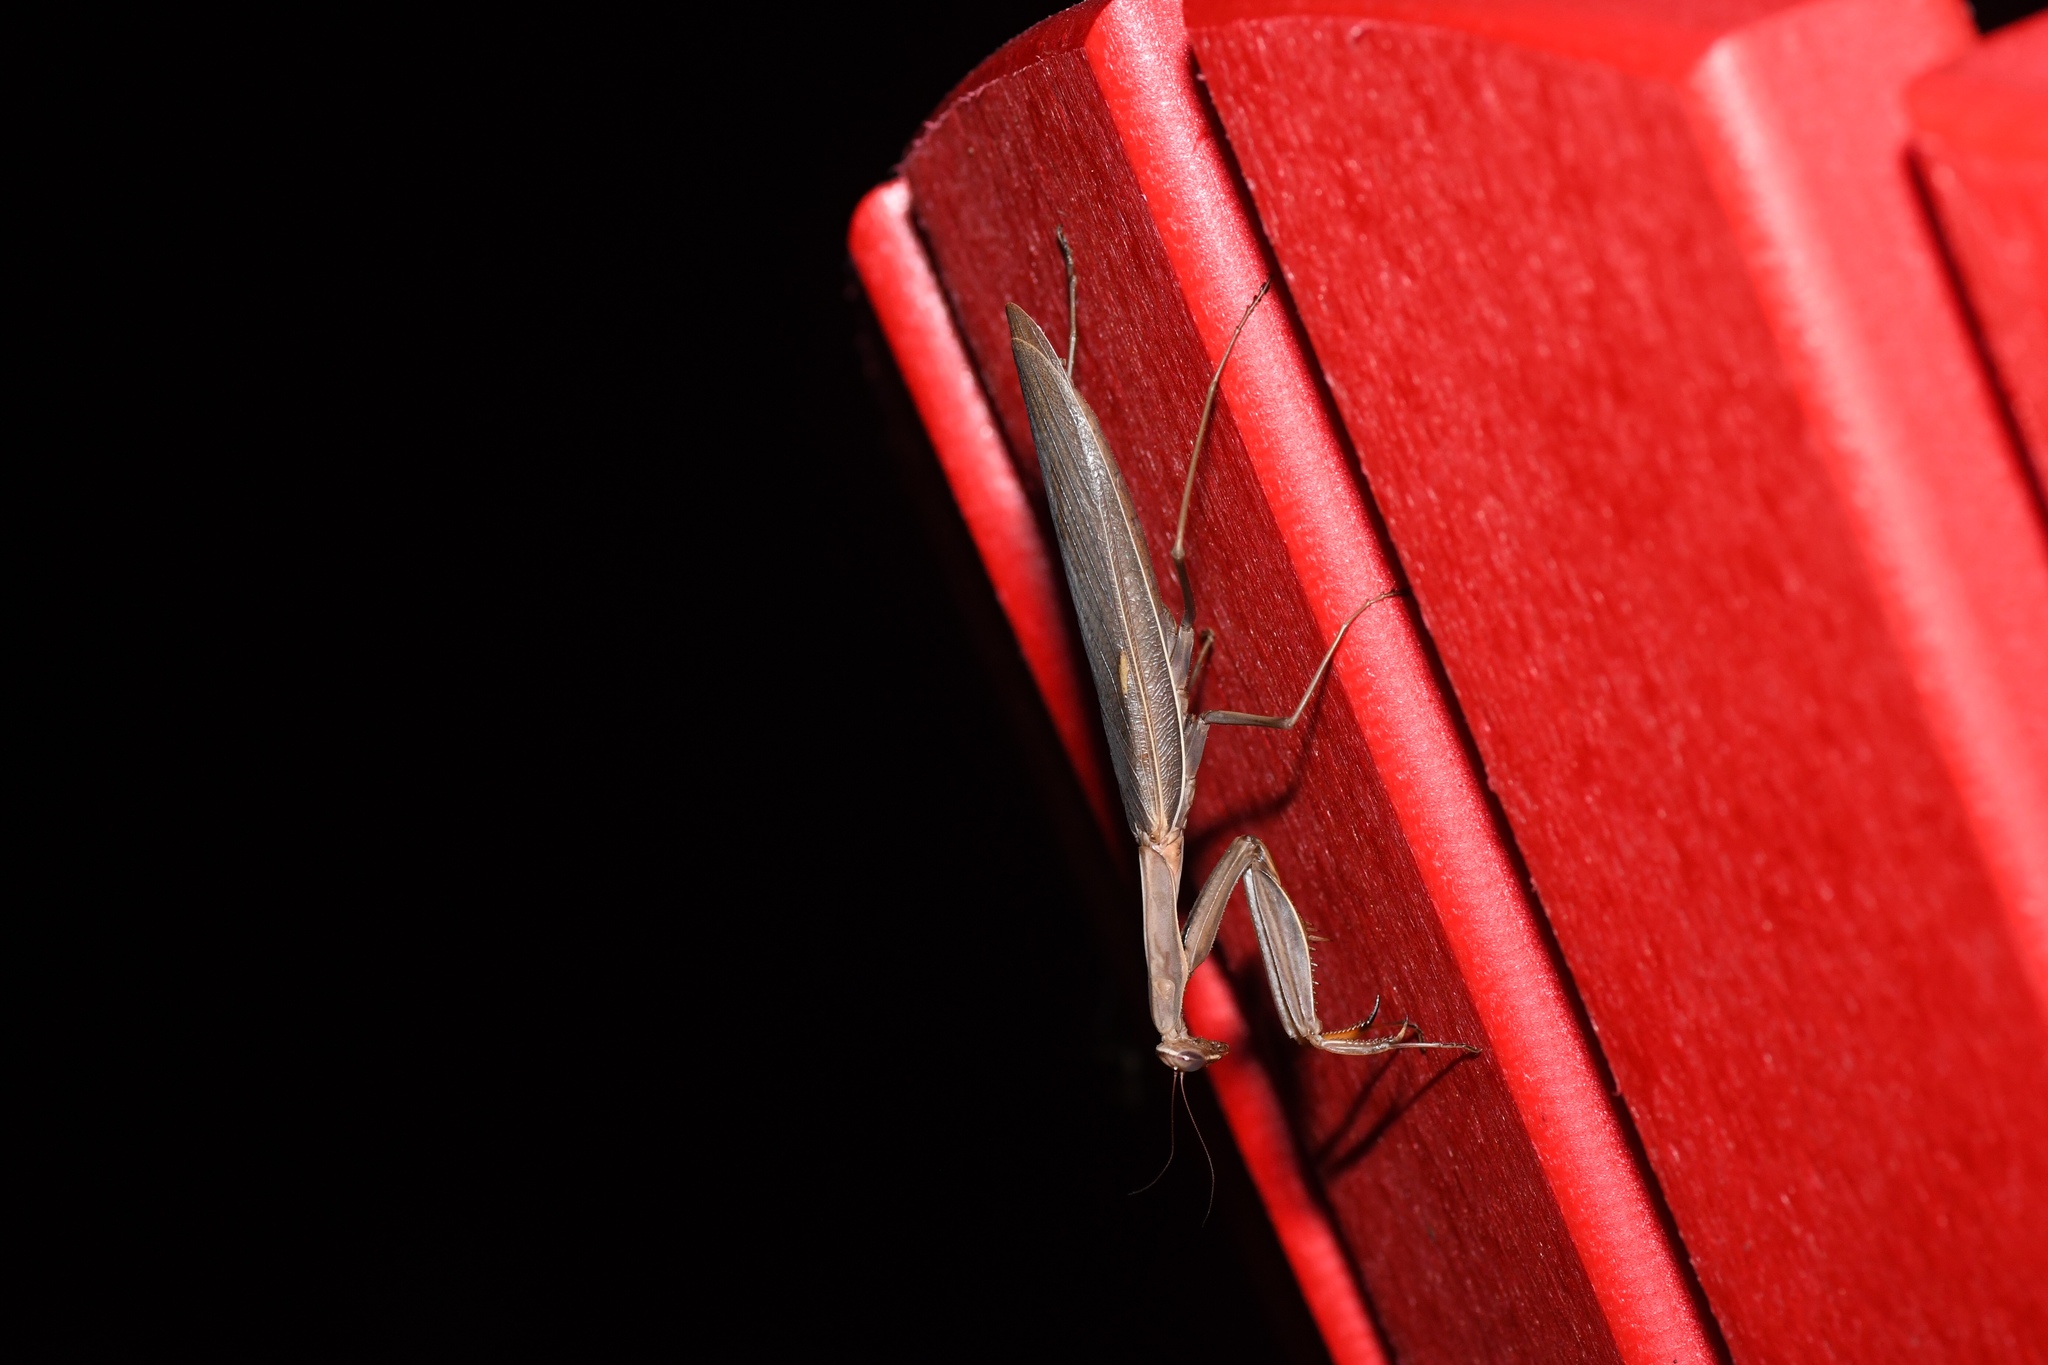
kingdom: Animalia
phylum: Arthropoda
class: Insecta
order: Mantodea
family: Mantidae
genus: Mantis
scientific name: Mantis religiosa
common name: Praying mantis
